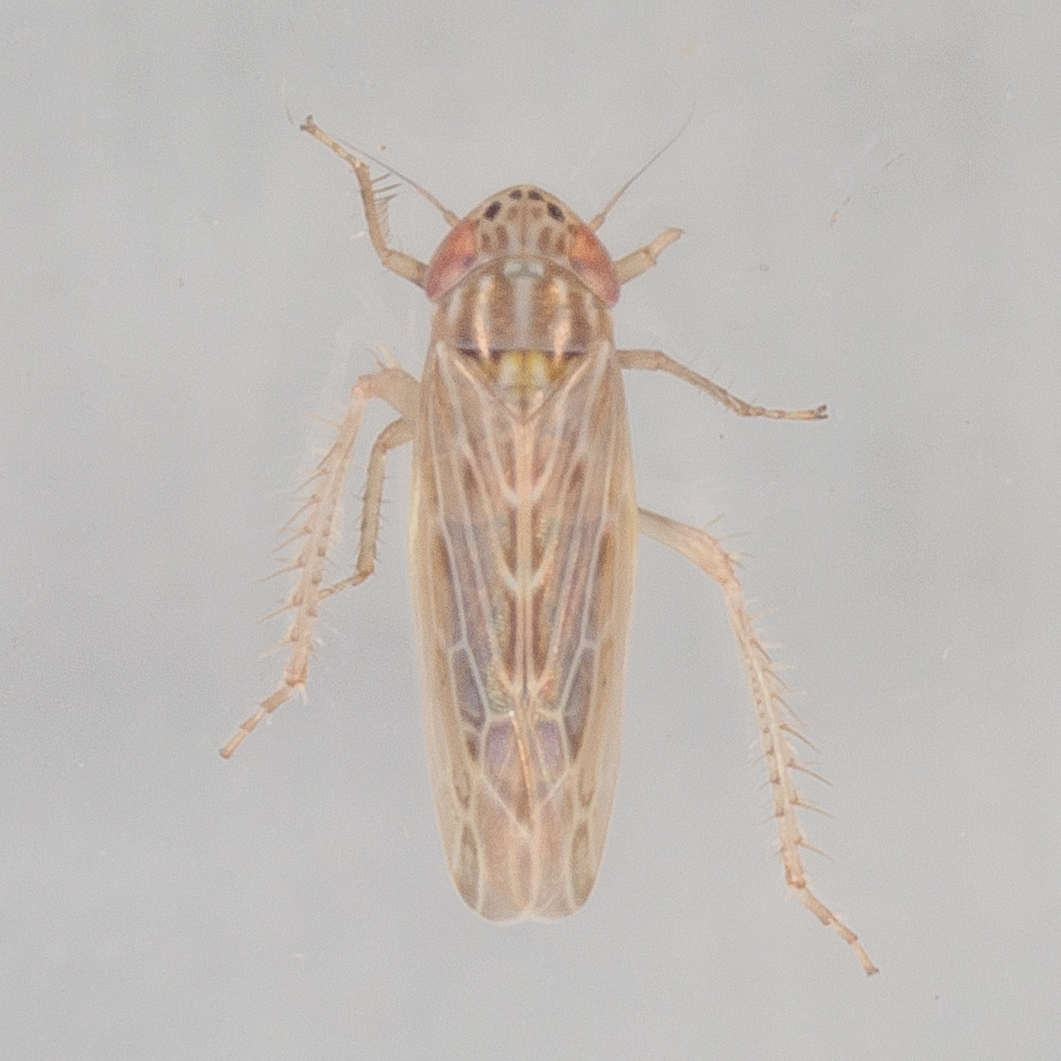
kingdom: Animalia
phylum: Arthropoda
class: Insecta
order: Hemiptera
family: Cicadellidae
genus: Graminella
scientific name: Graminella sonora
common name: Lesser lawn leafhopper
